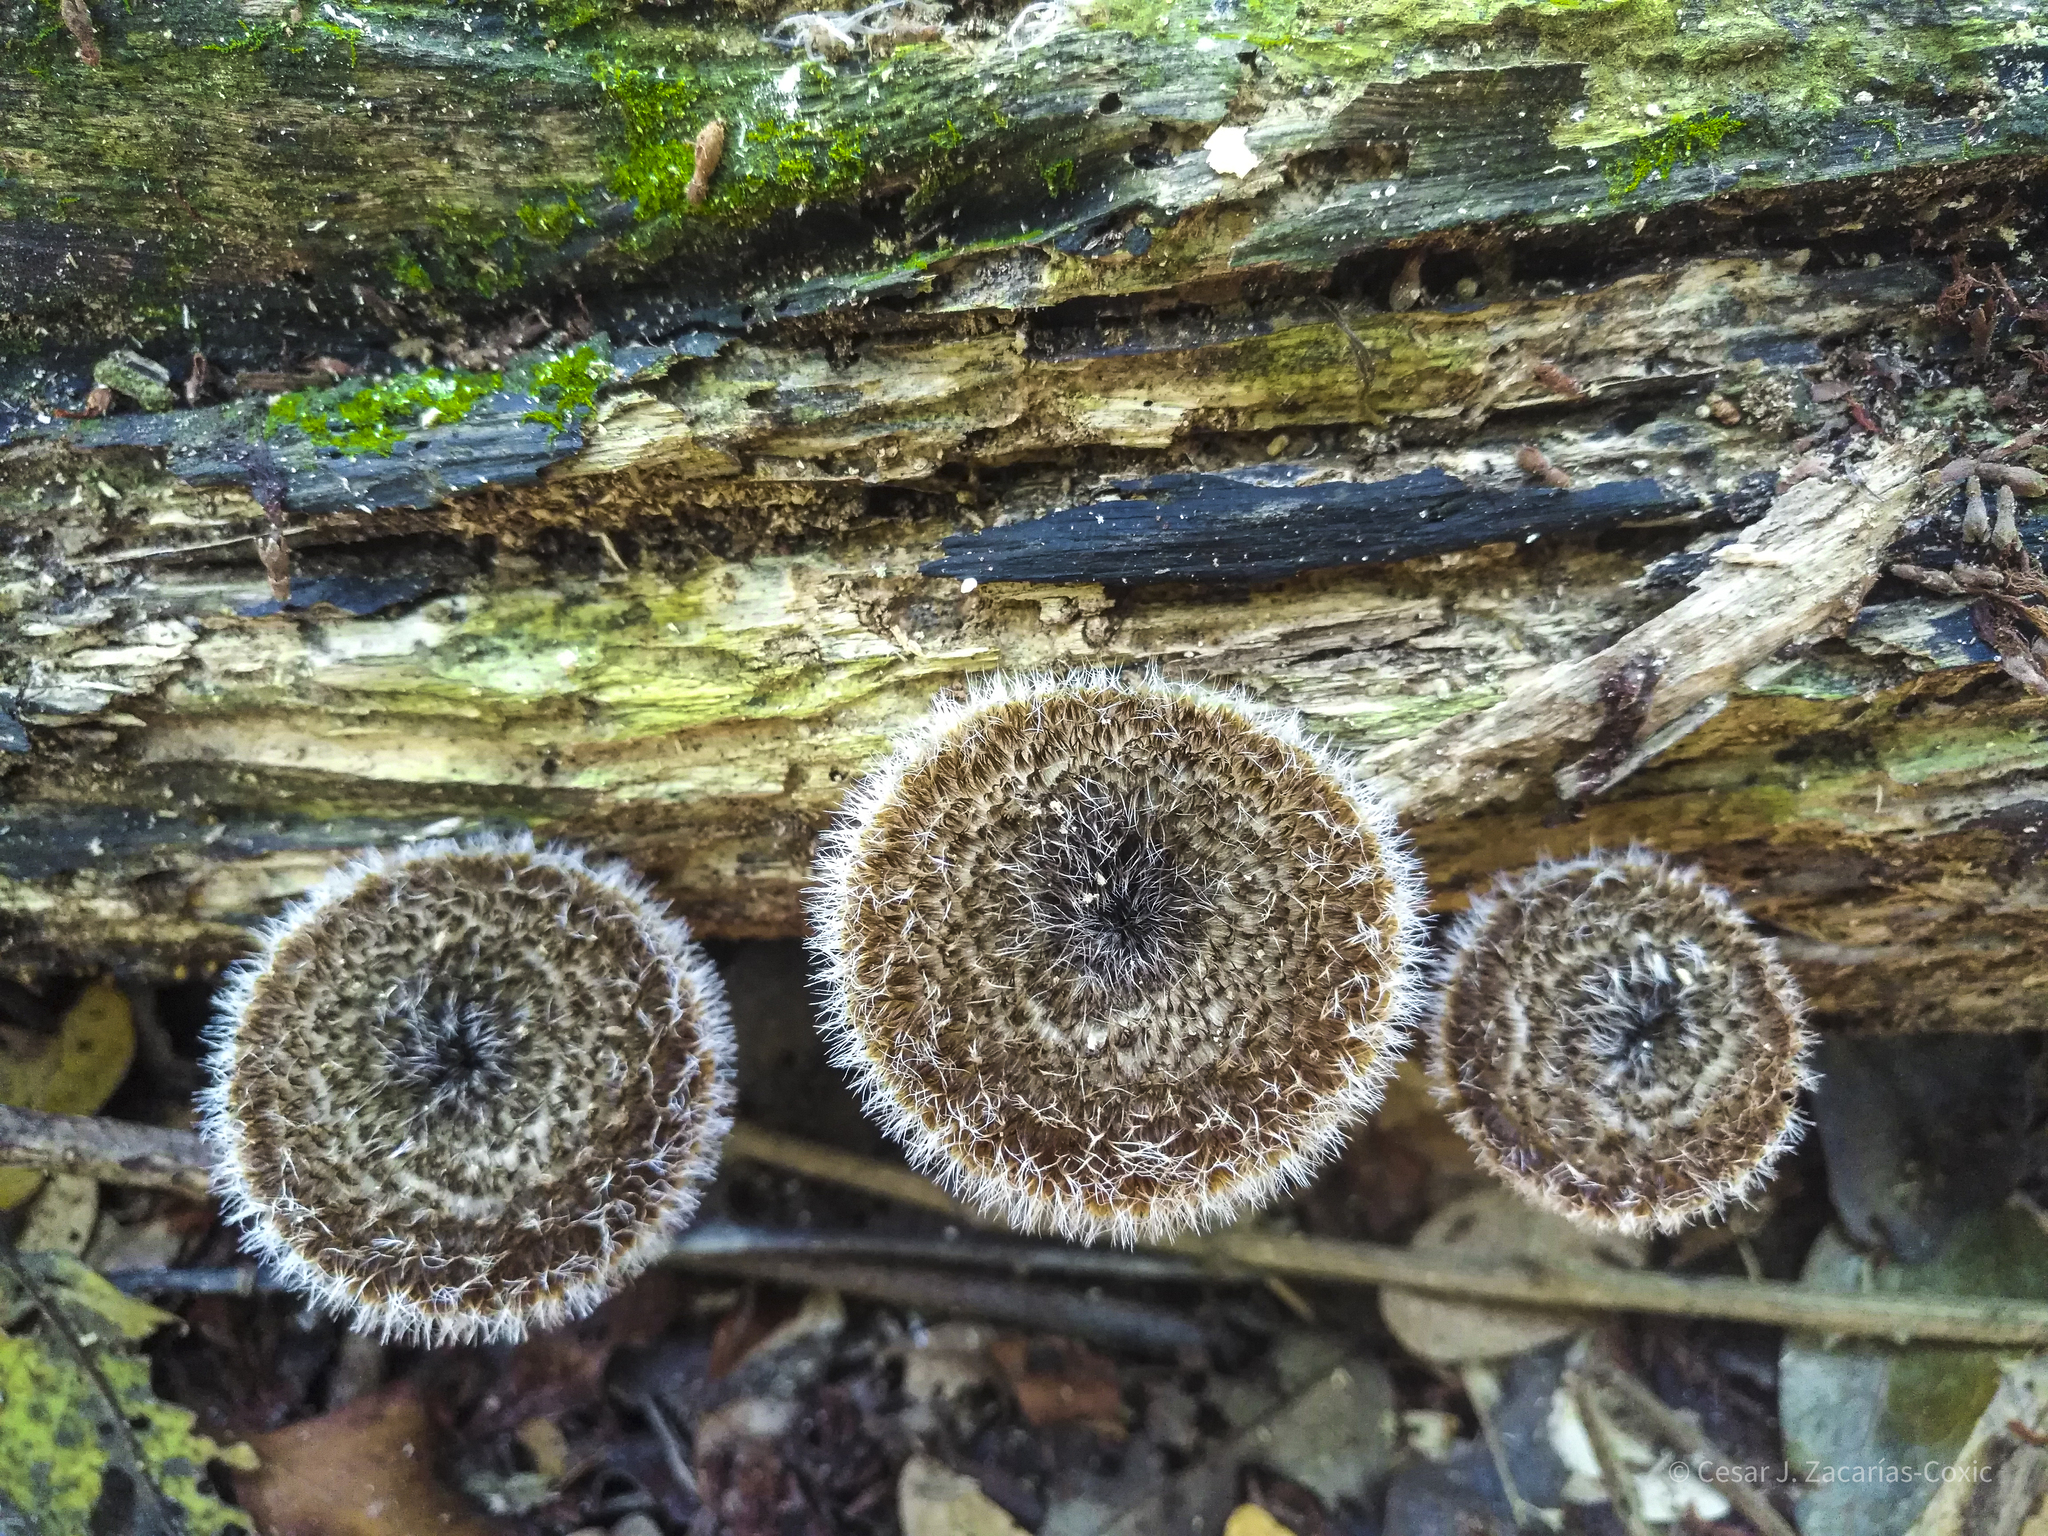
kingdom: Fungi
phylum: Basidiomycota
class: Agaricomycetes
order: Polyporales
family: Polyporaceae
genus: Lentinus
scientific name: Lentinus berteroi
